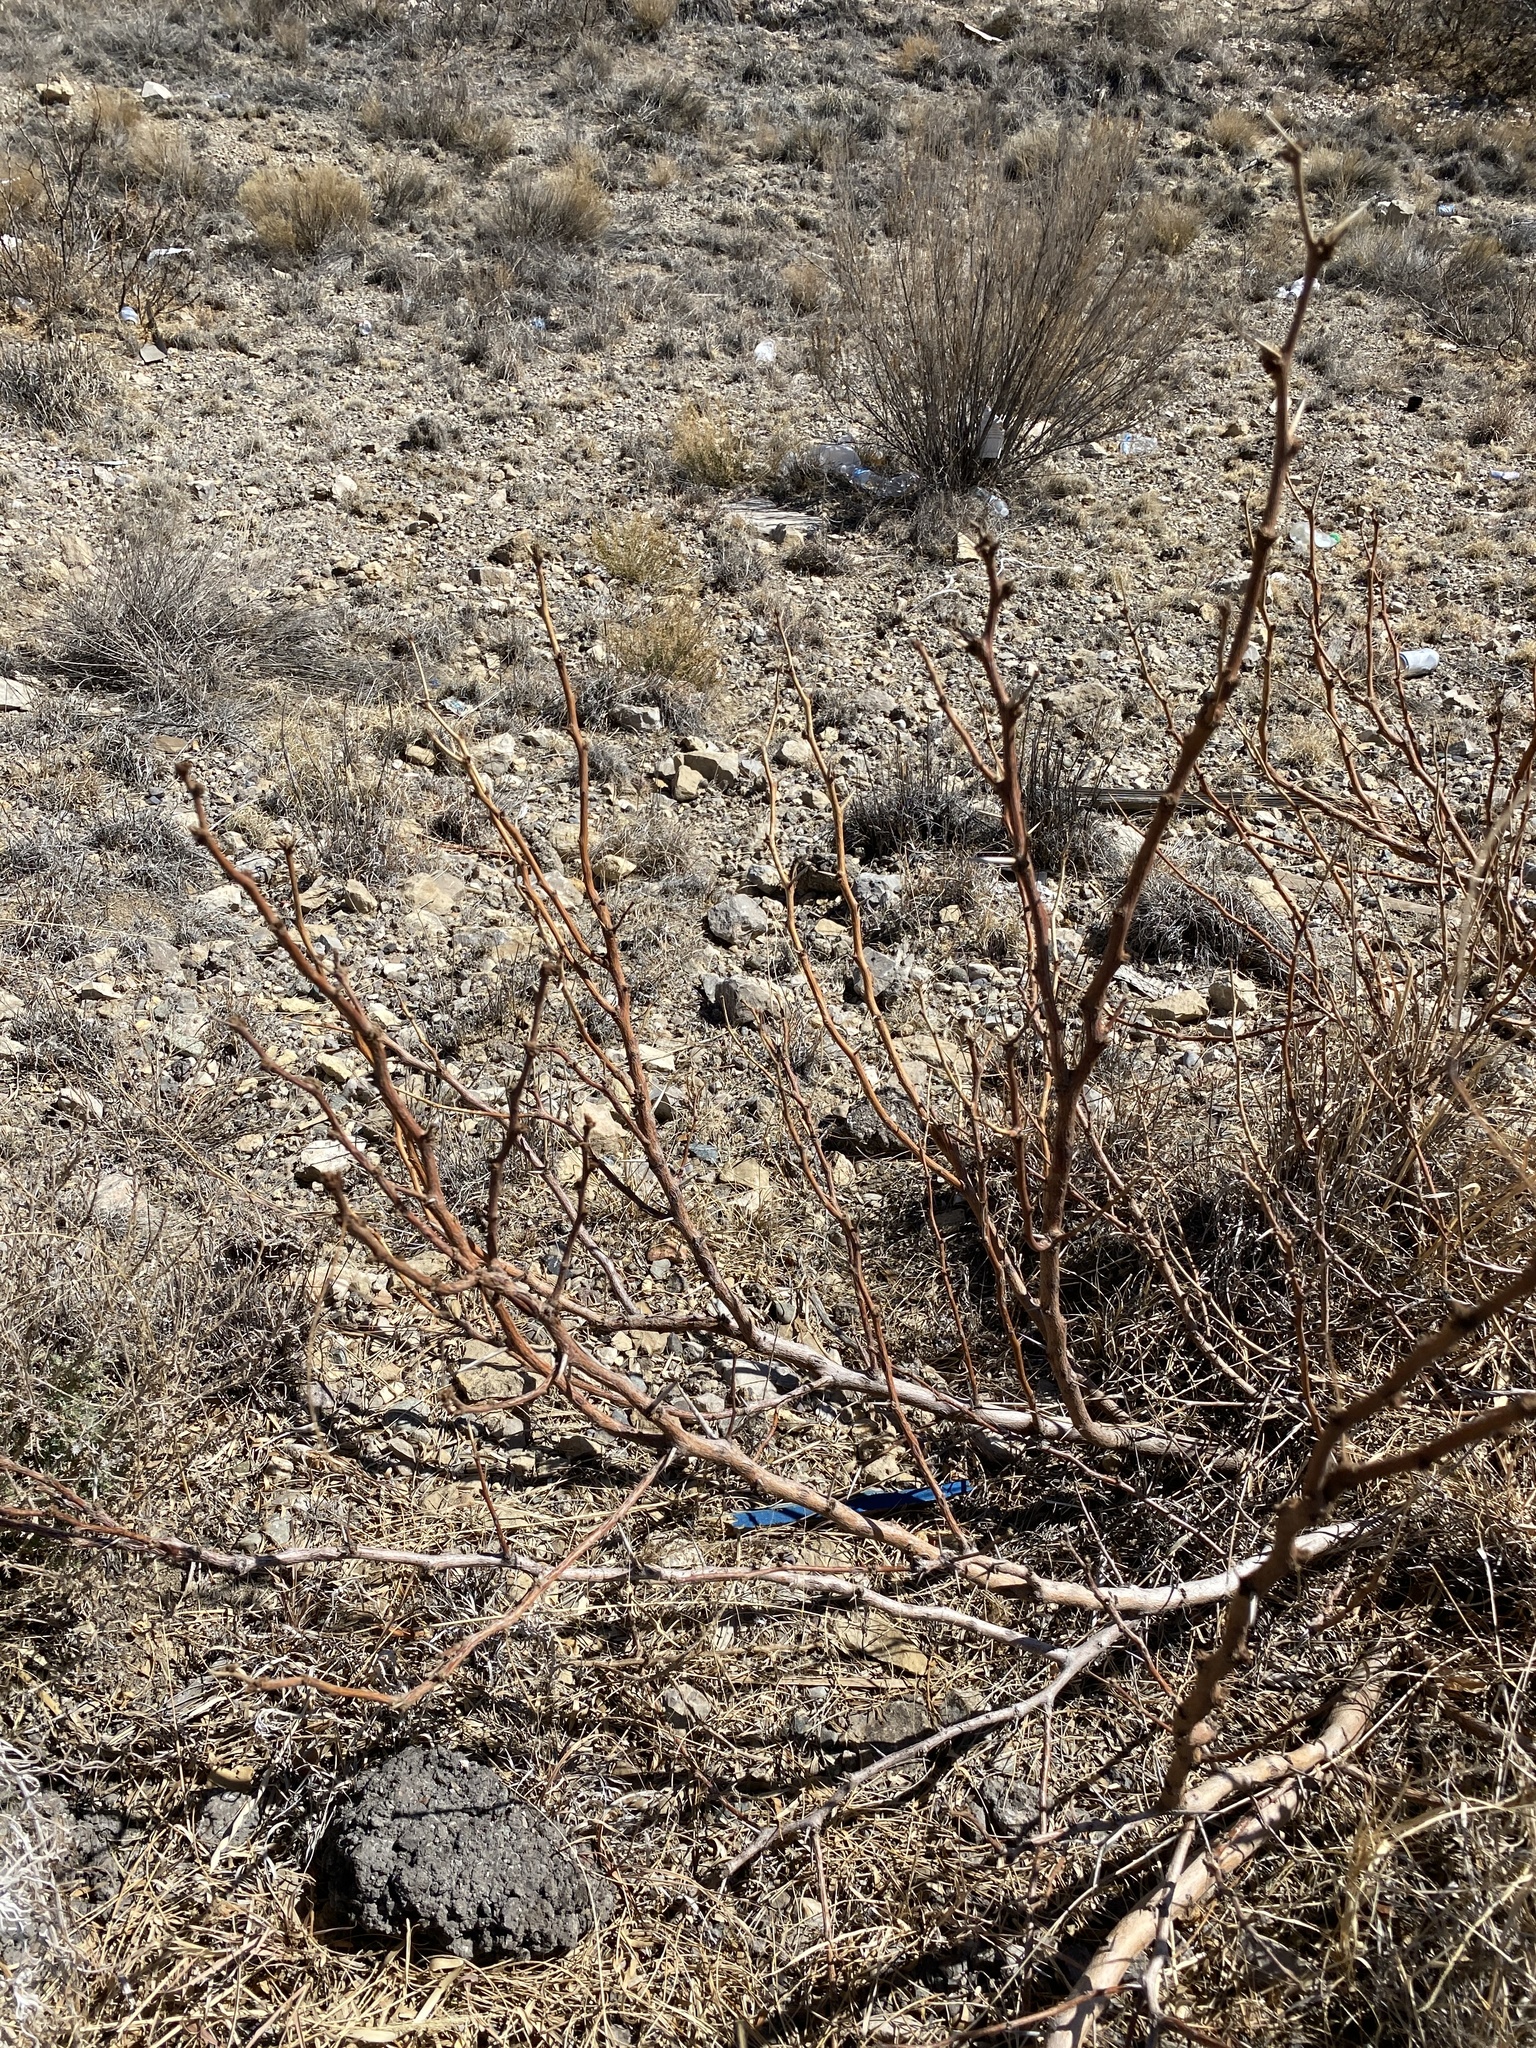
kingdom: Plantae
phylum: Tracheophyta
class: Magnoliopsida
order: Fabales
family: Fabaceae
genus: Prosopis
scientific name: Prosopis glandulosa
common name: Honey mesquite
